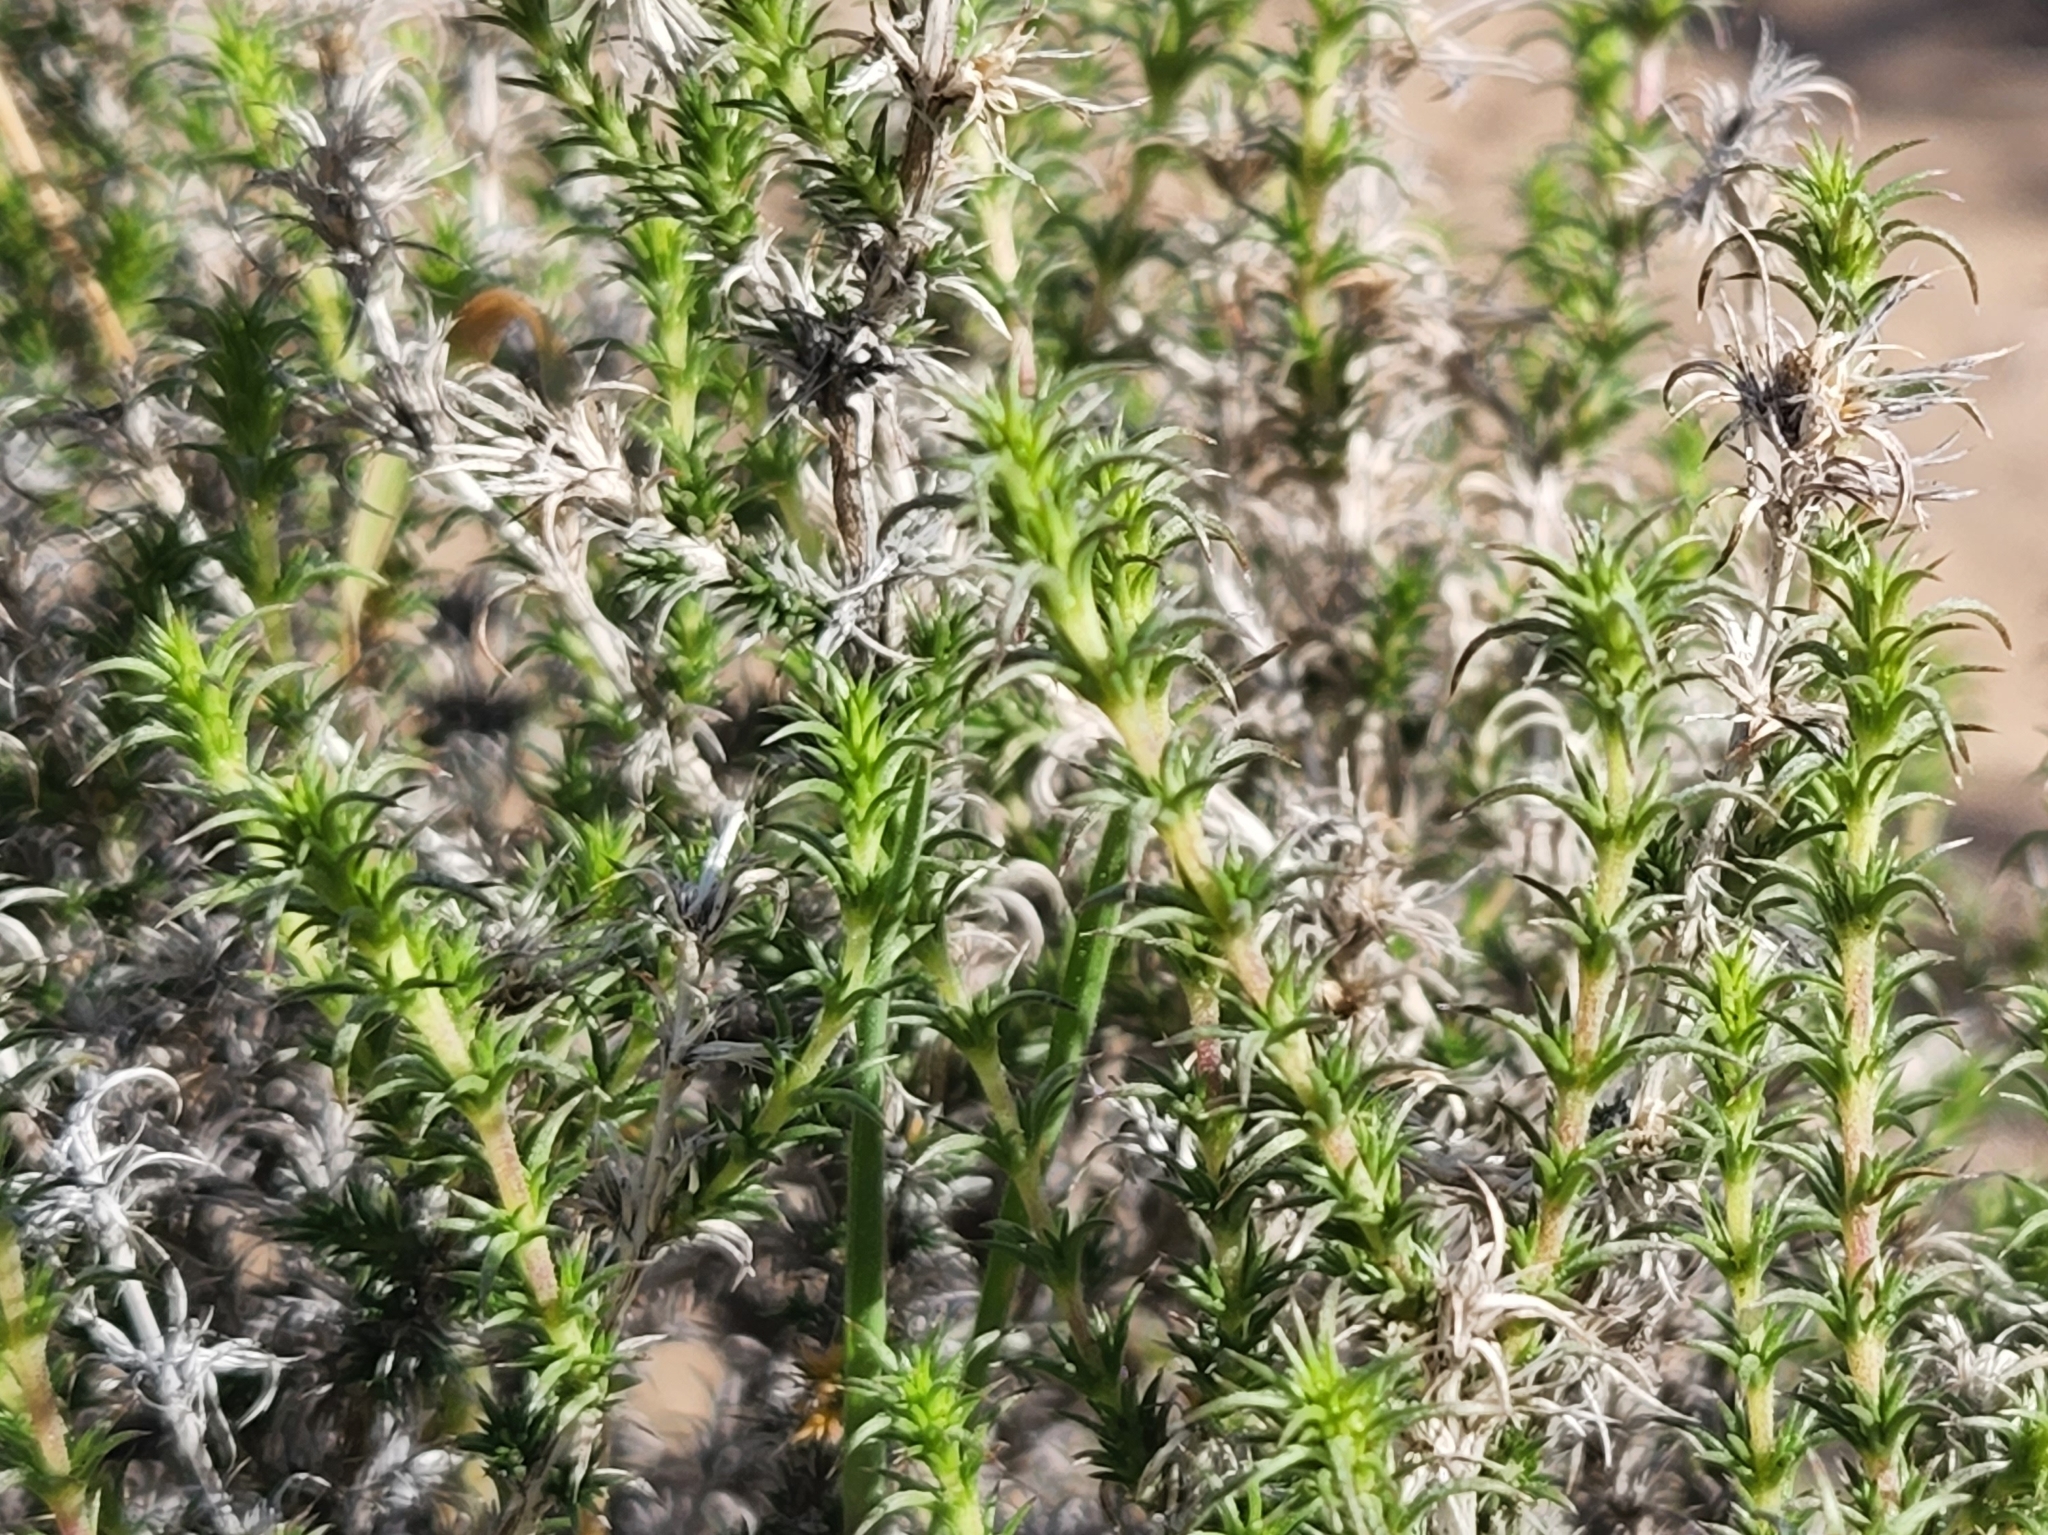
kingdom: Plantae
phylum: Tracheophyta
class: Magnoliopsida
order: Ericales
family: Polemoniaceae
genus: Linanthus
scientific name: Linanthus pungens
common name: Granite prickly phlox
